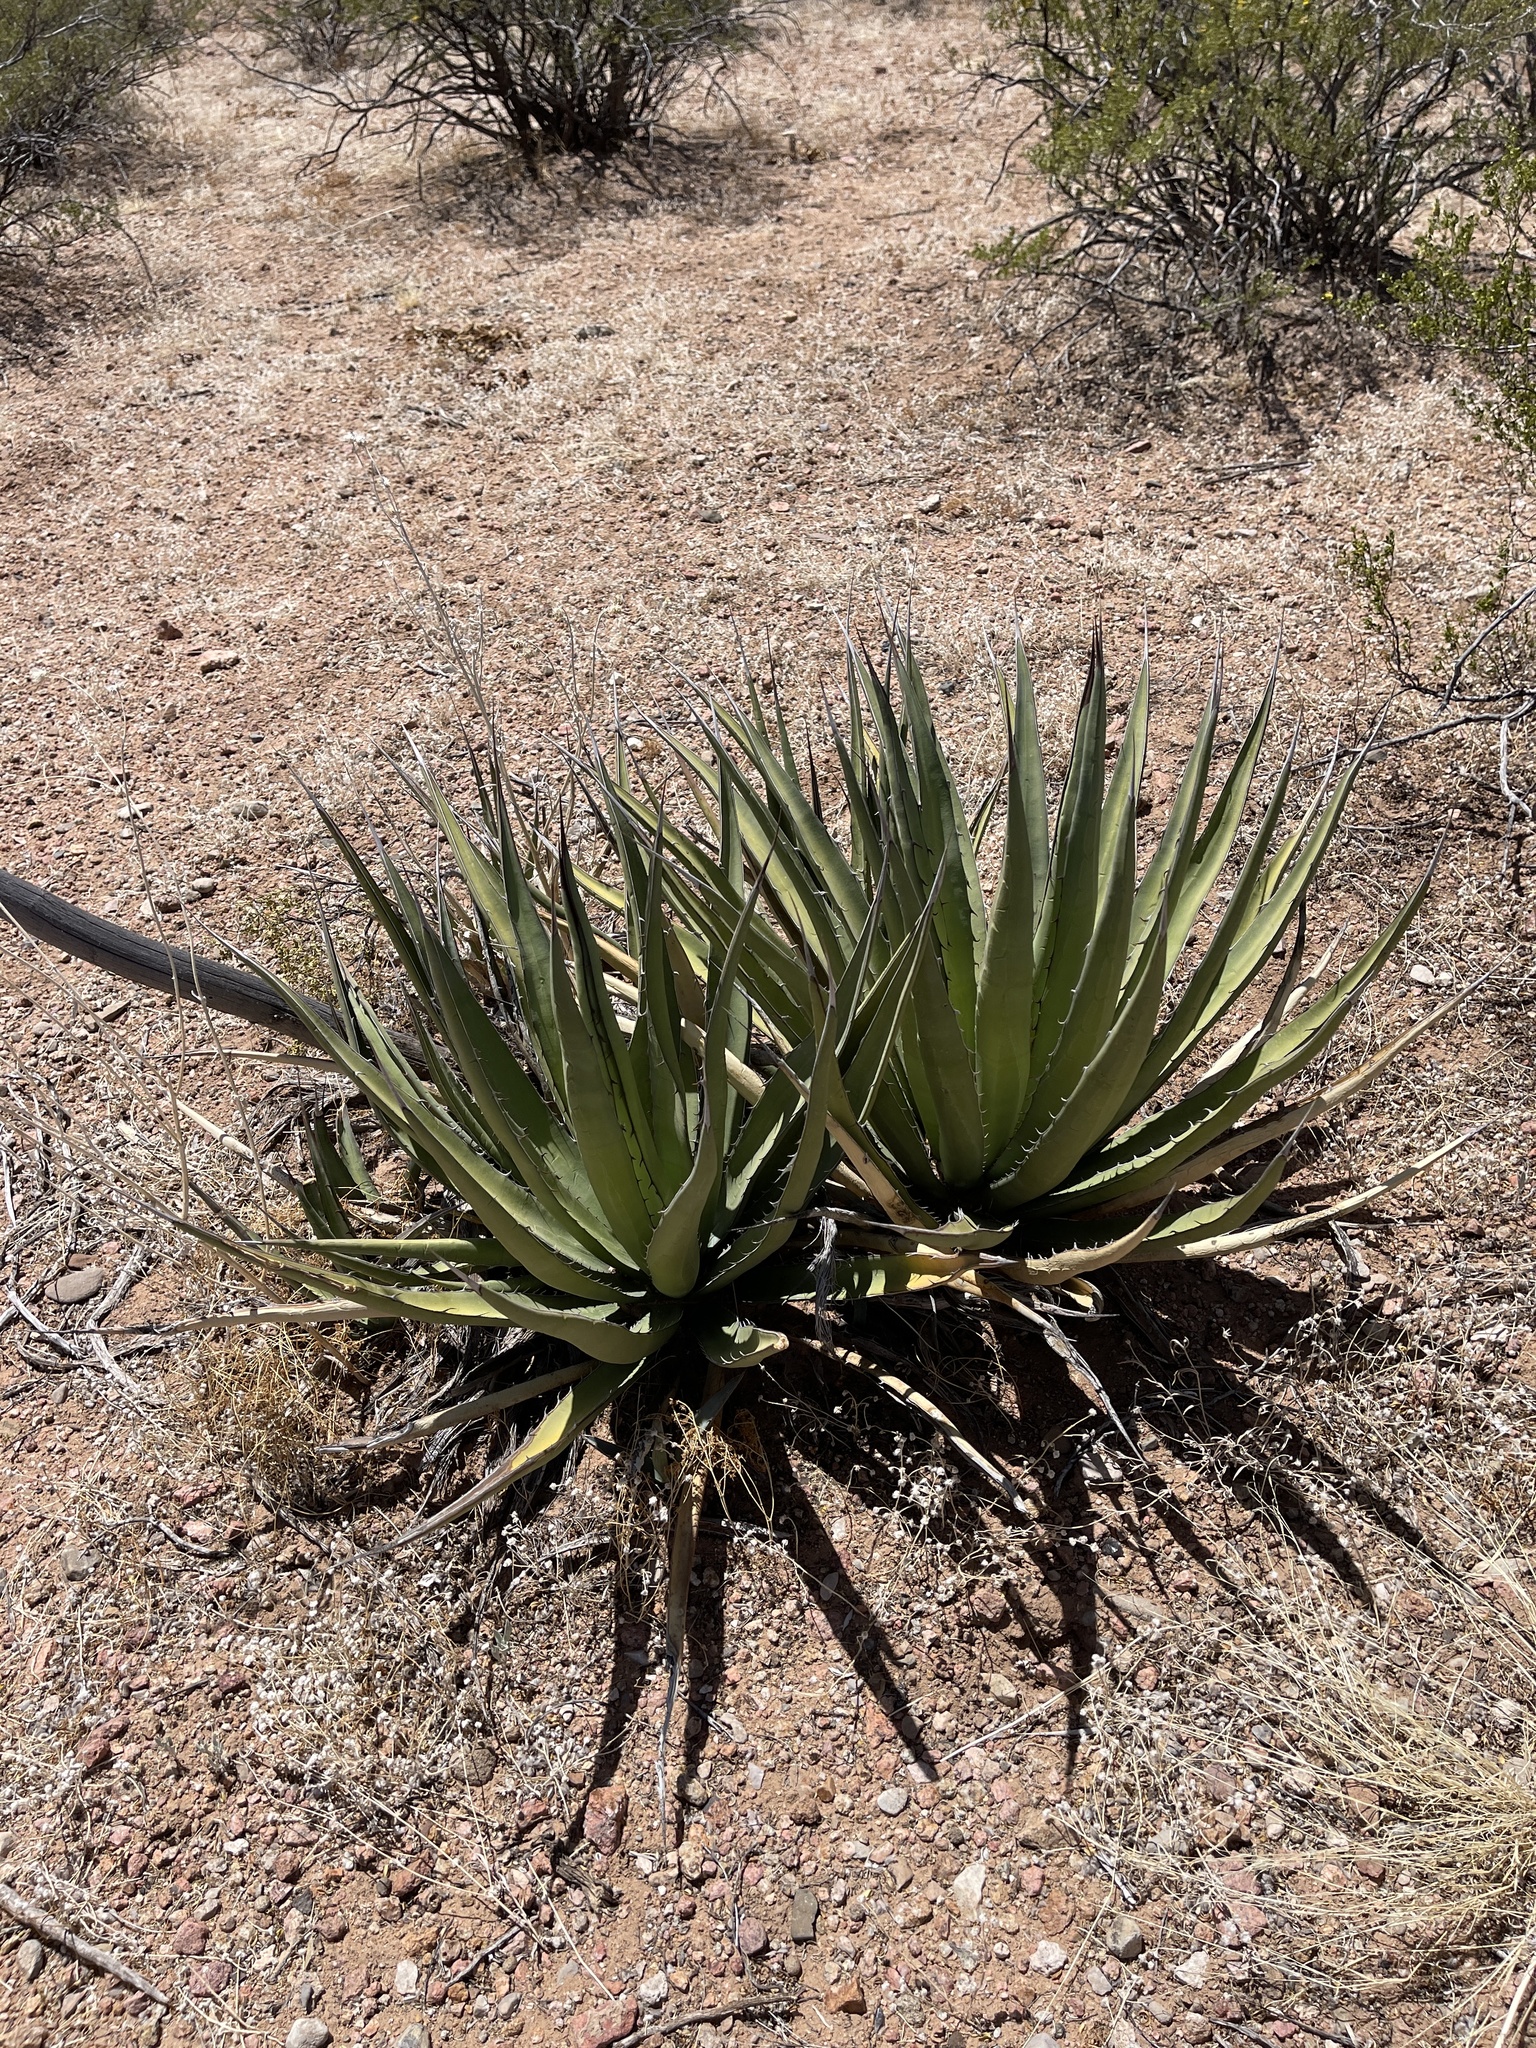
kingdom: Plantae
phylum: Tracheophyta
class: Liliopsida
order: Asparagales
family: Asparagaceae
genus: Agave
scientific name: Agave lechuguilla
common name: Lecheguilla agave
